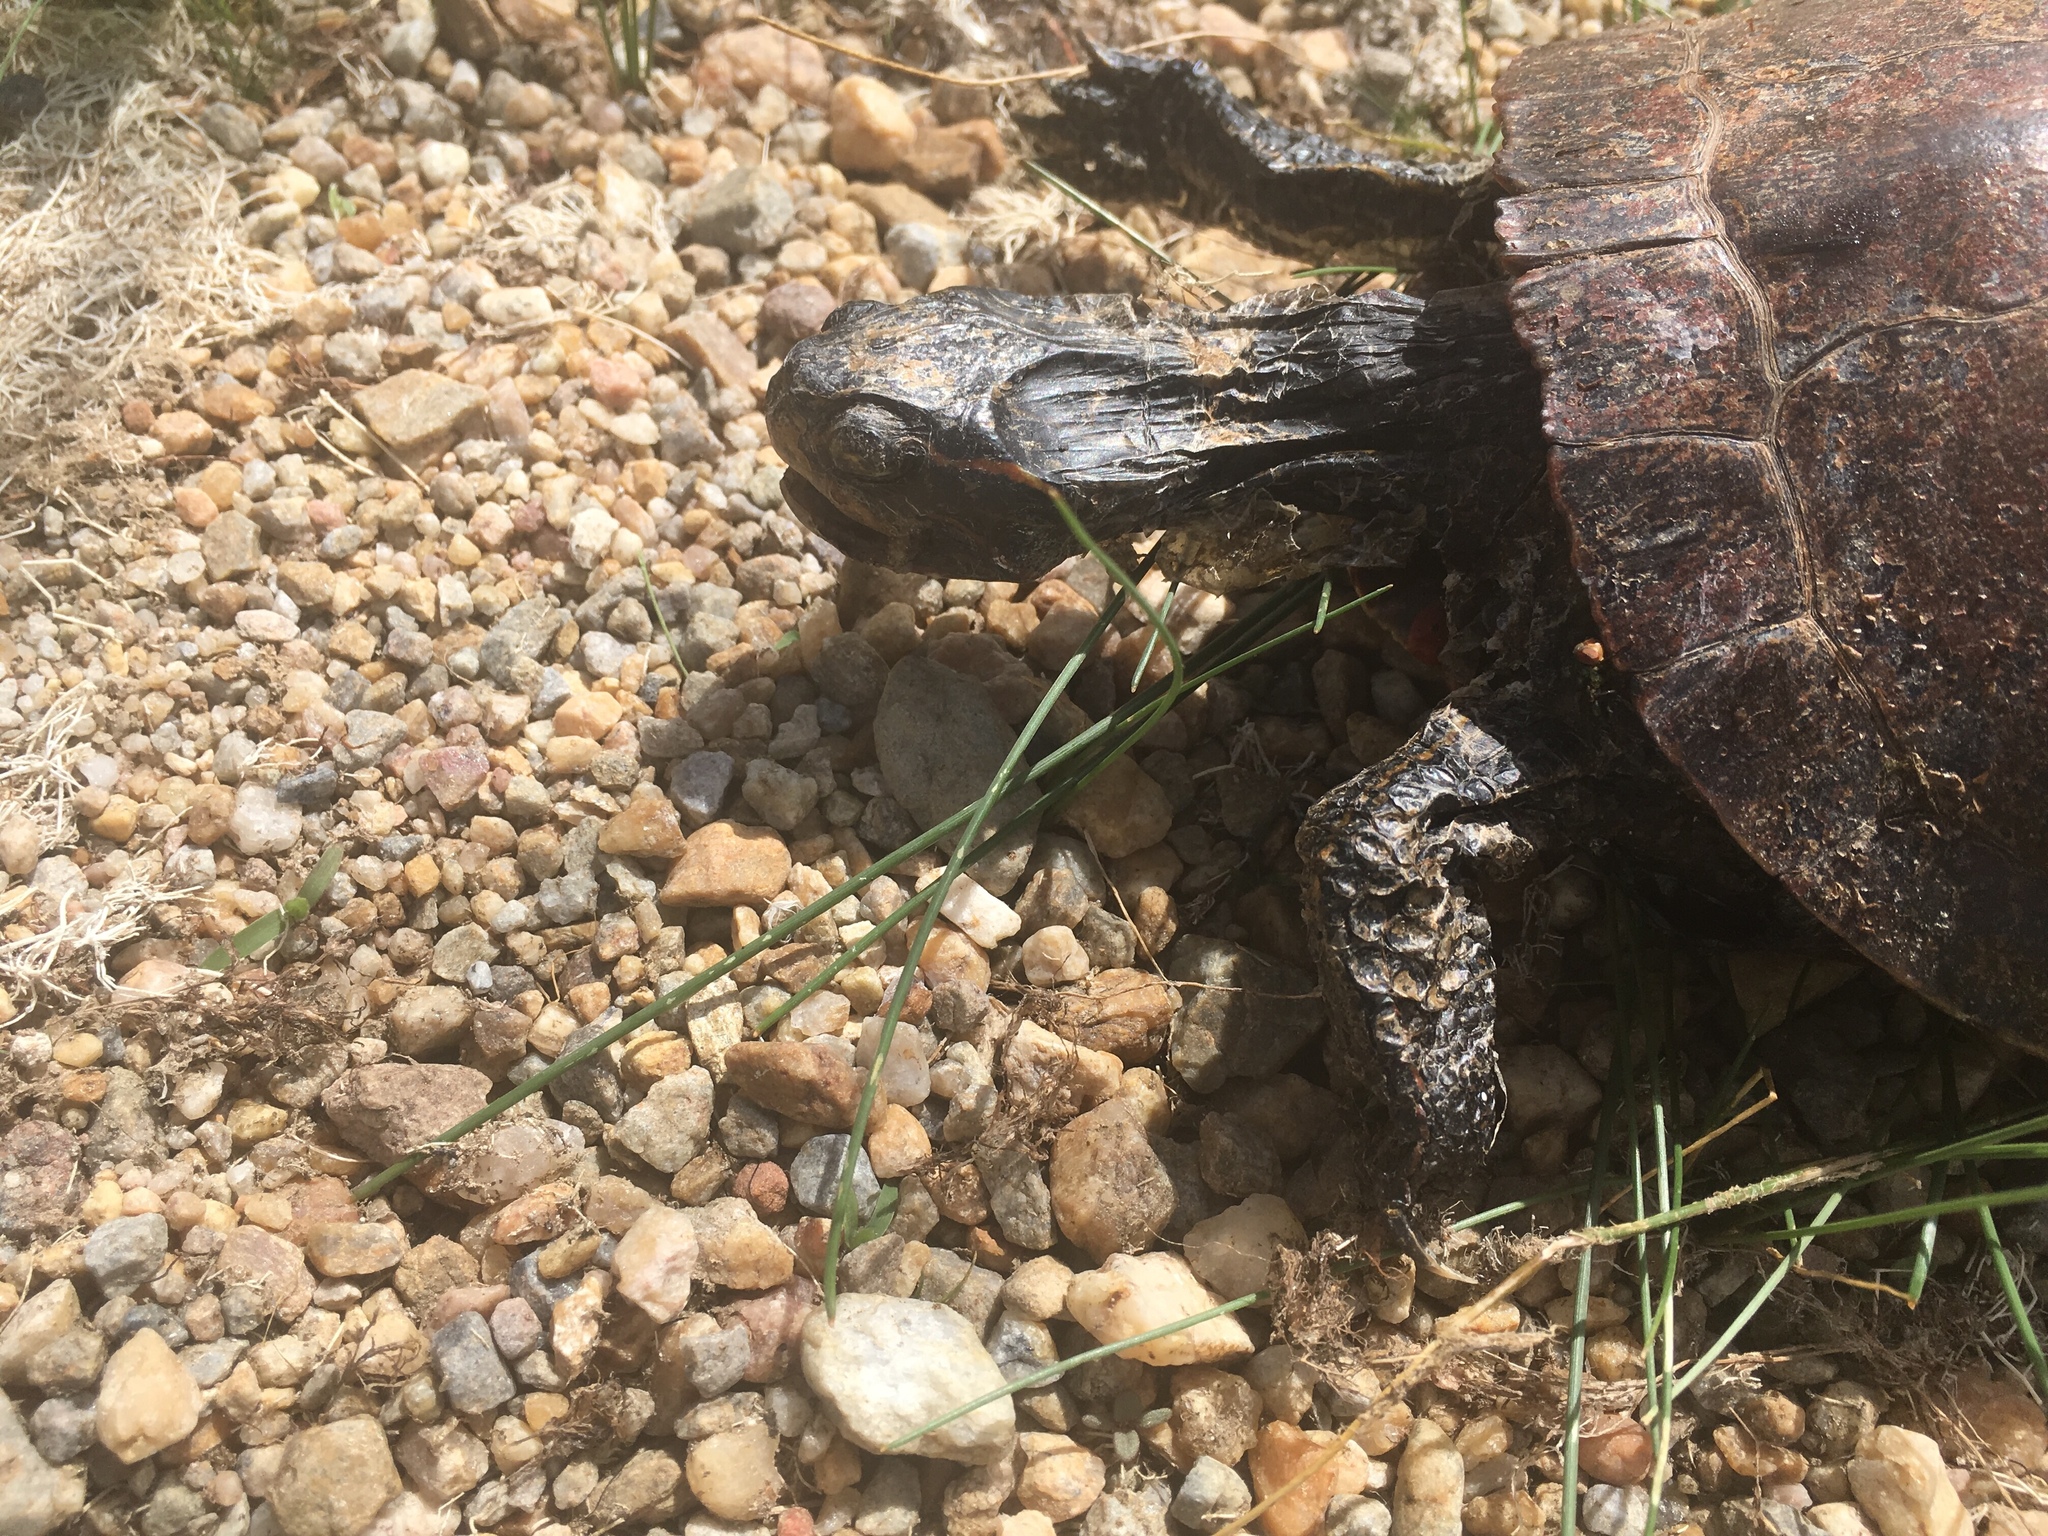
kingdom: Animalia
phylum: Chordata
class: Testudines
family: Emydidae
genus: Chrysemys
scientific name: Chrysemys picta
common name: Painted turtle
